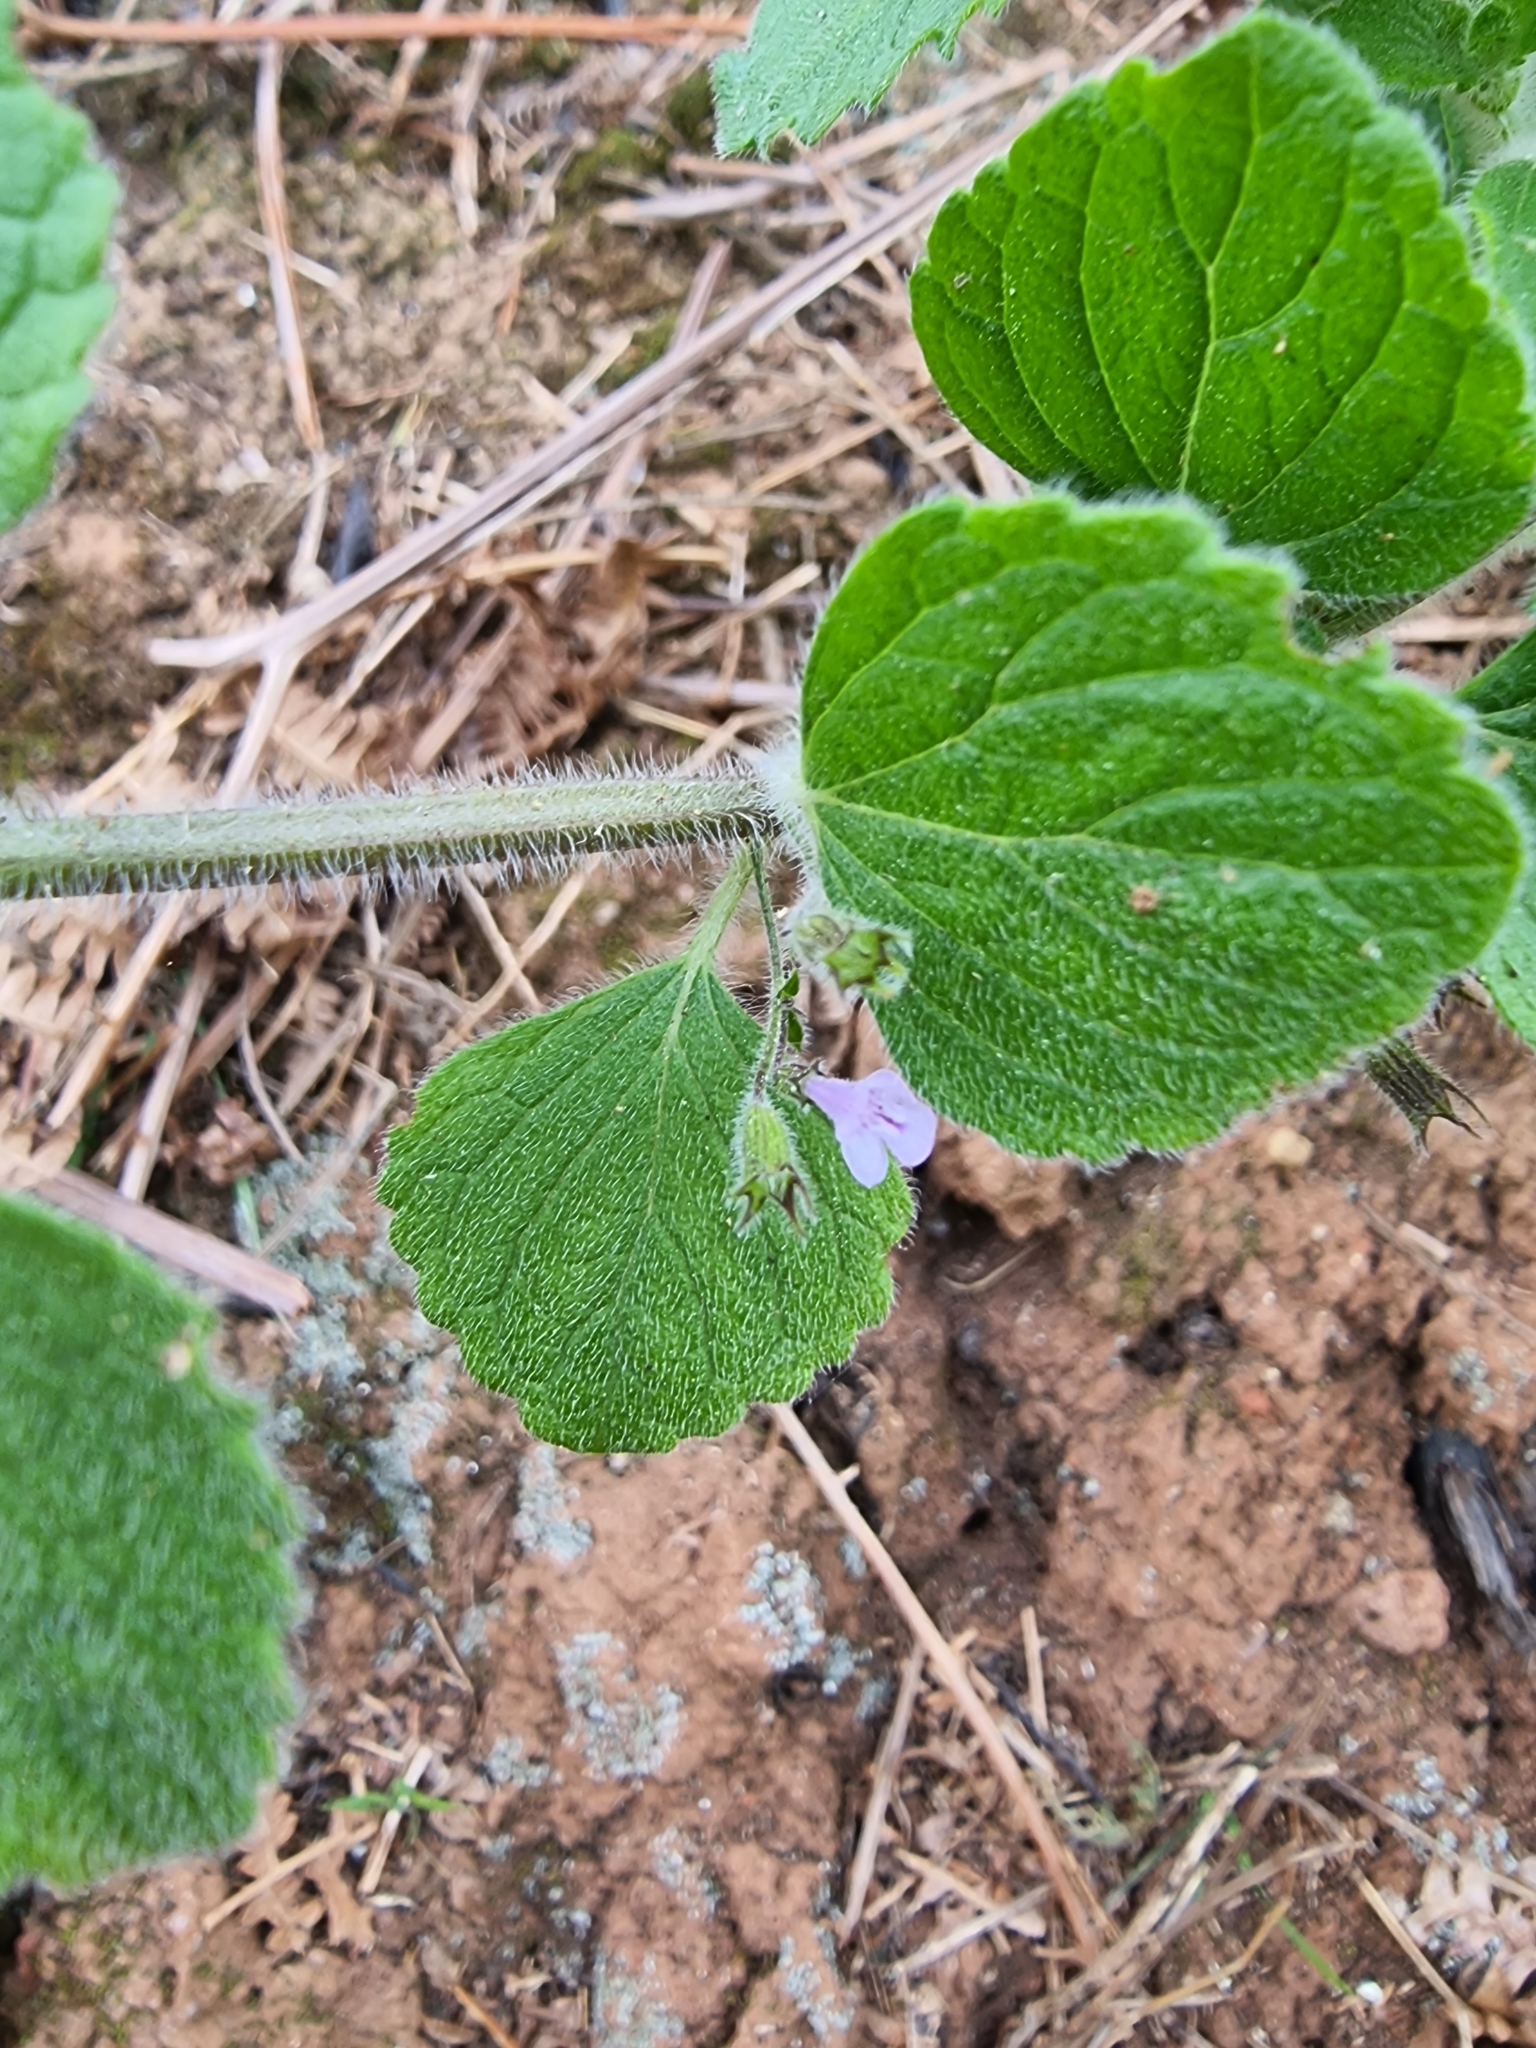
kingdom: Plantae
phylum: Tracheophyta
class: Magnoliopsida
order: Lamiales
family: Lamiaceae
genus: Clinopodium
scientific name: Clinopodium menthifolium
